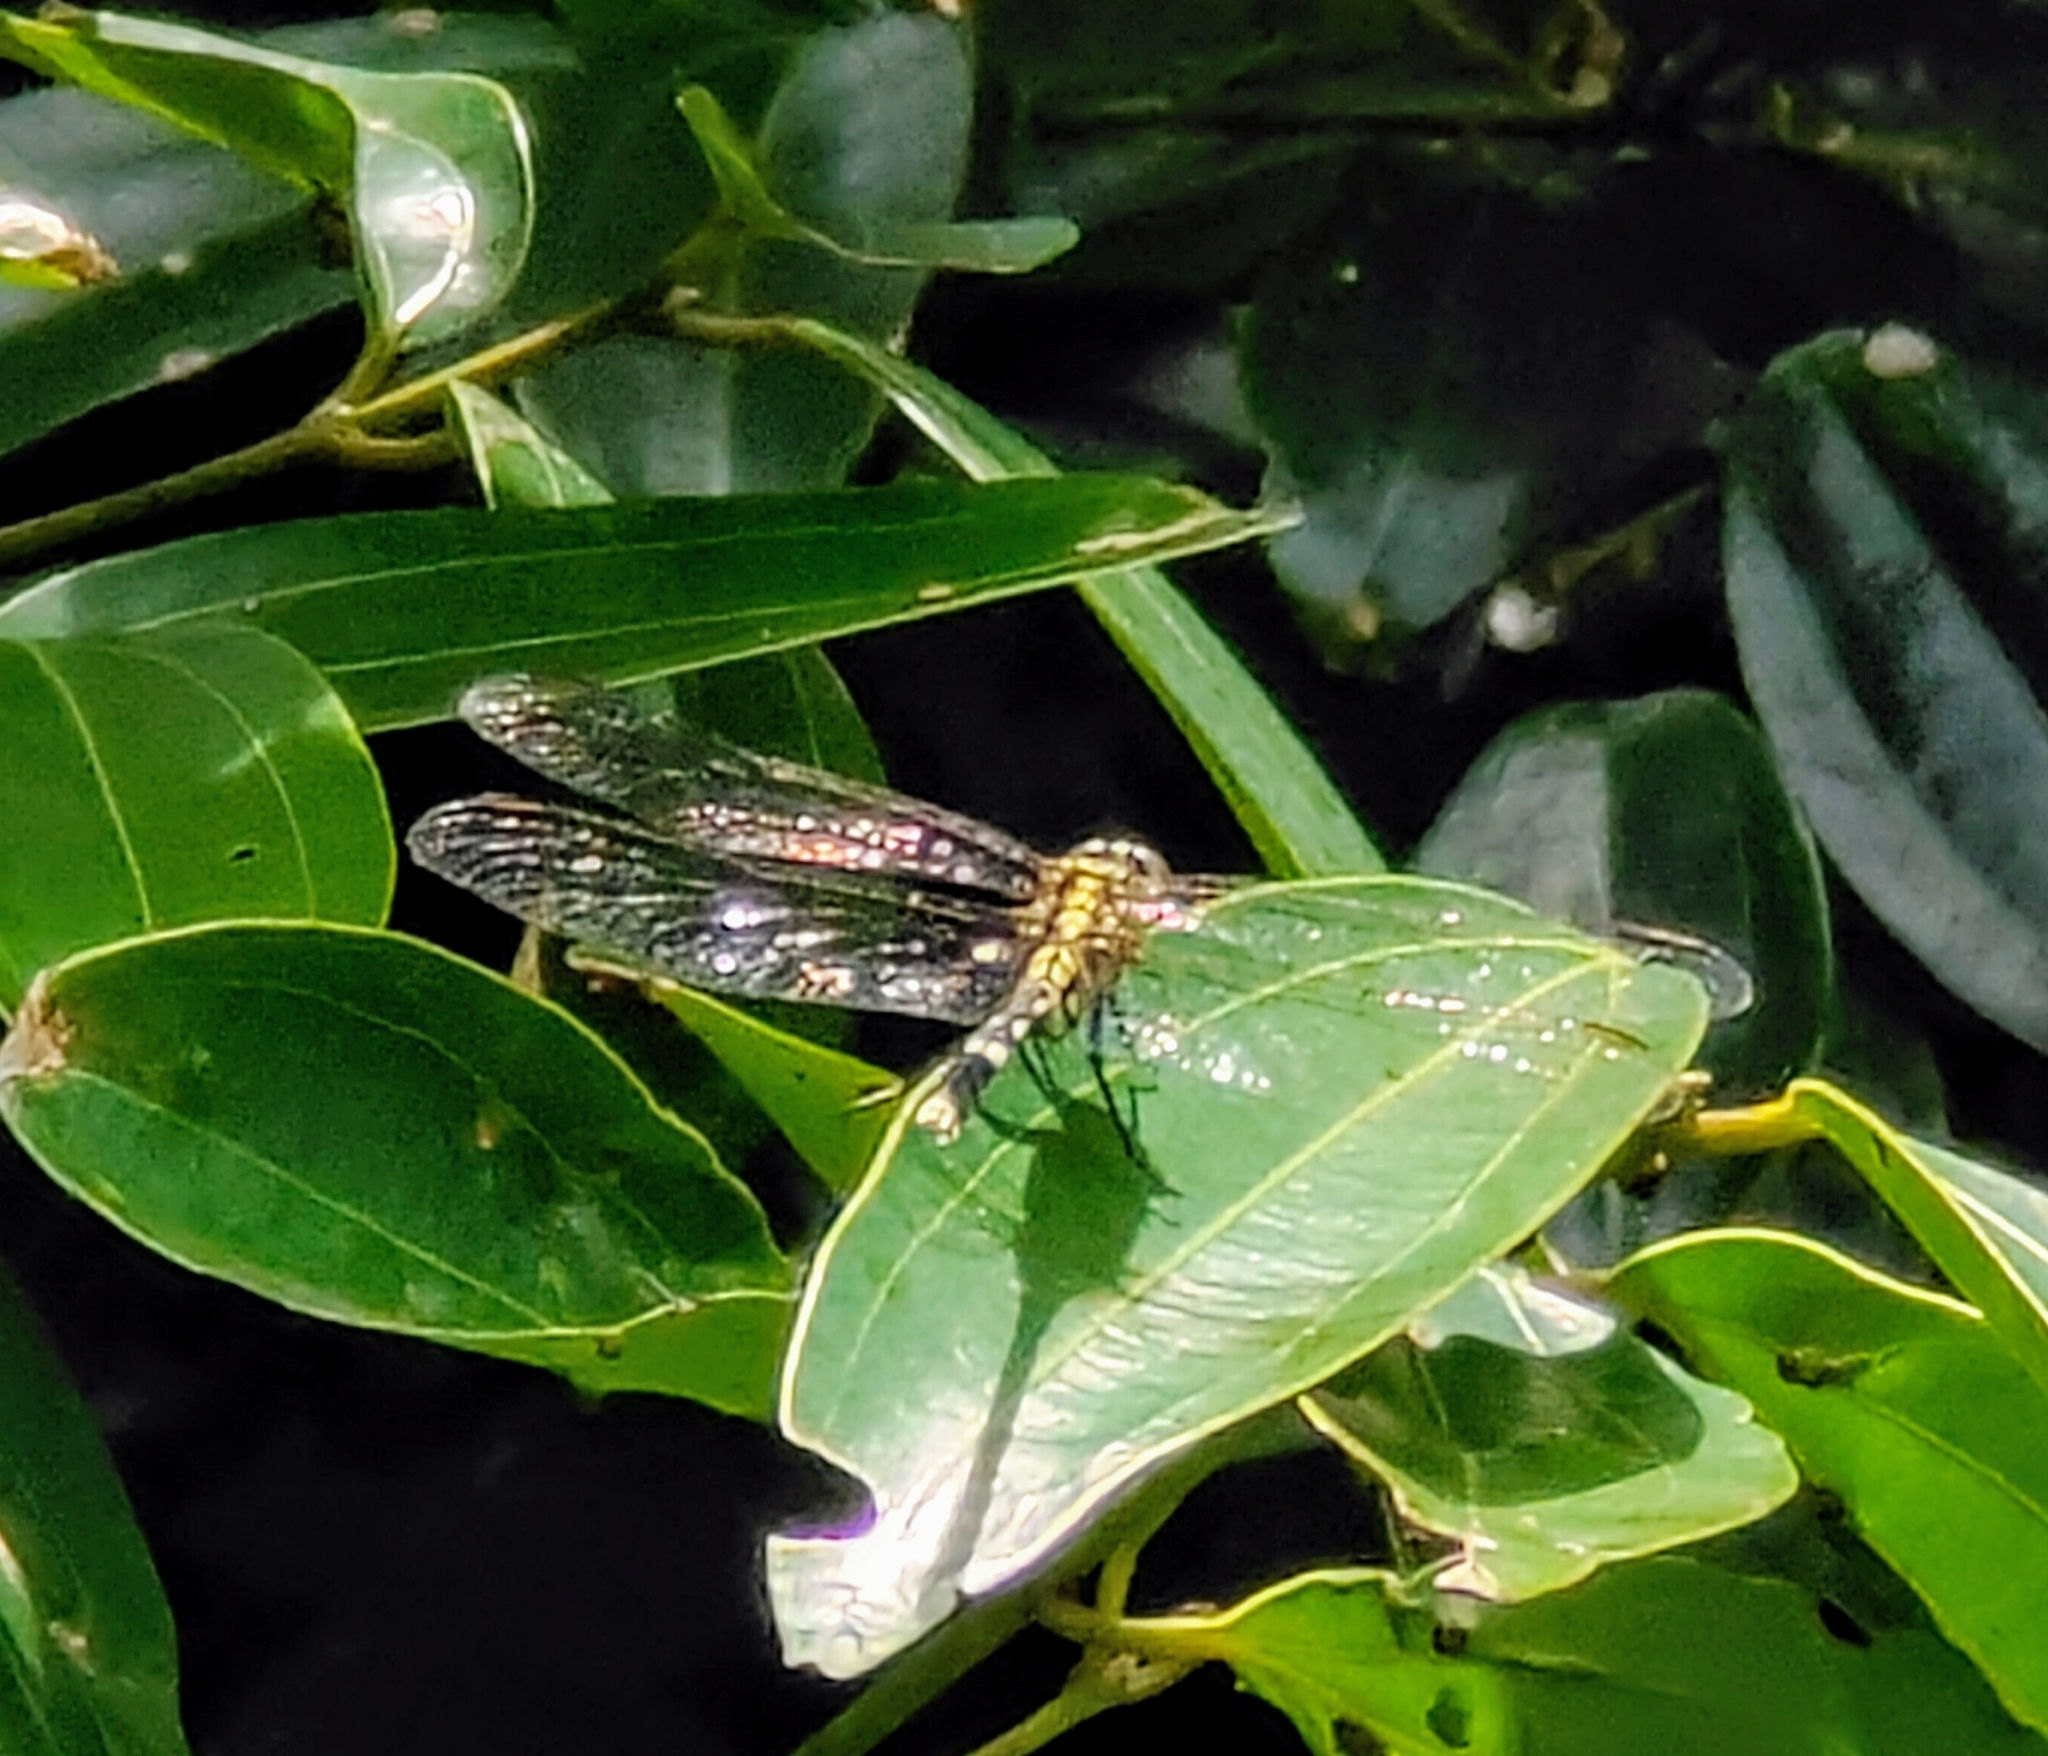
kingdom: Animalia
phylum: Arthropoda
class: Insecta
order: Odonata
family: Libellulidae
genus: Diplacodes
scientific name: Diplacodes trivialis
